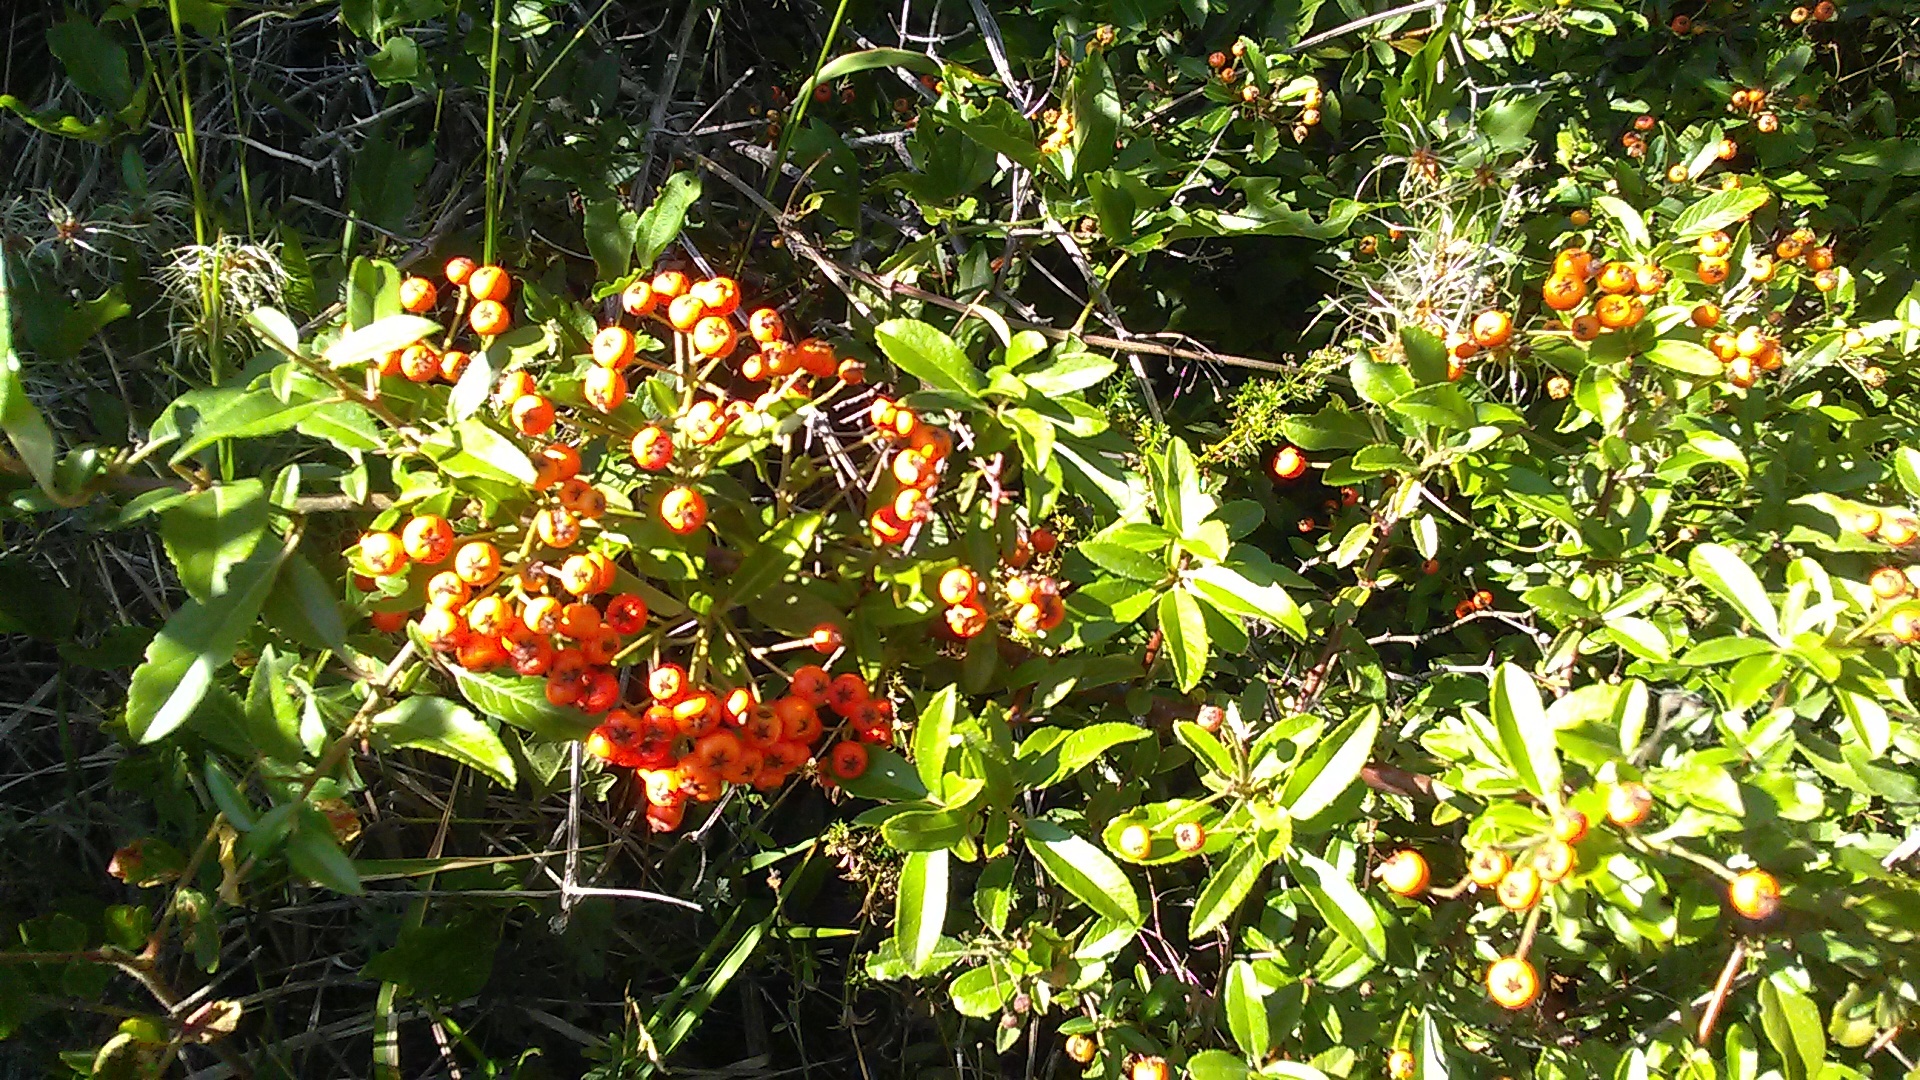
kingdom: Plantae
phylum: Tracheophyta
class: Magnoliopsida
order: Rosales
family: Rosaceae
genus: Pyracantha
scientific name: Pyracantha coccinea
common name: Firethorn
